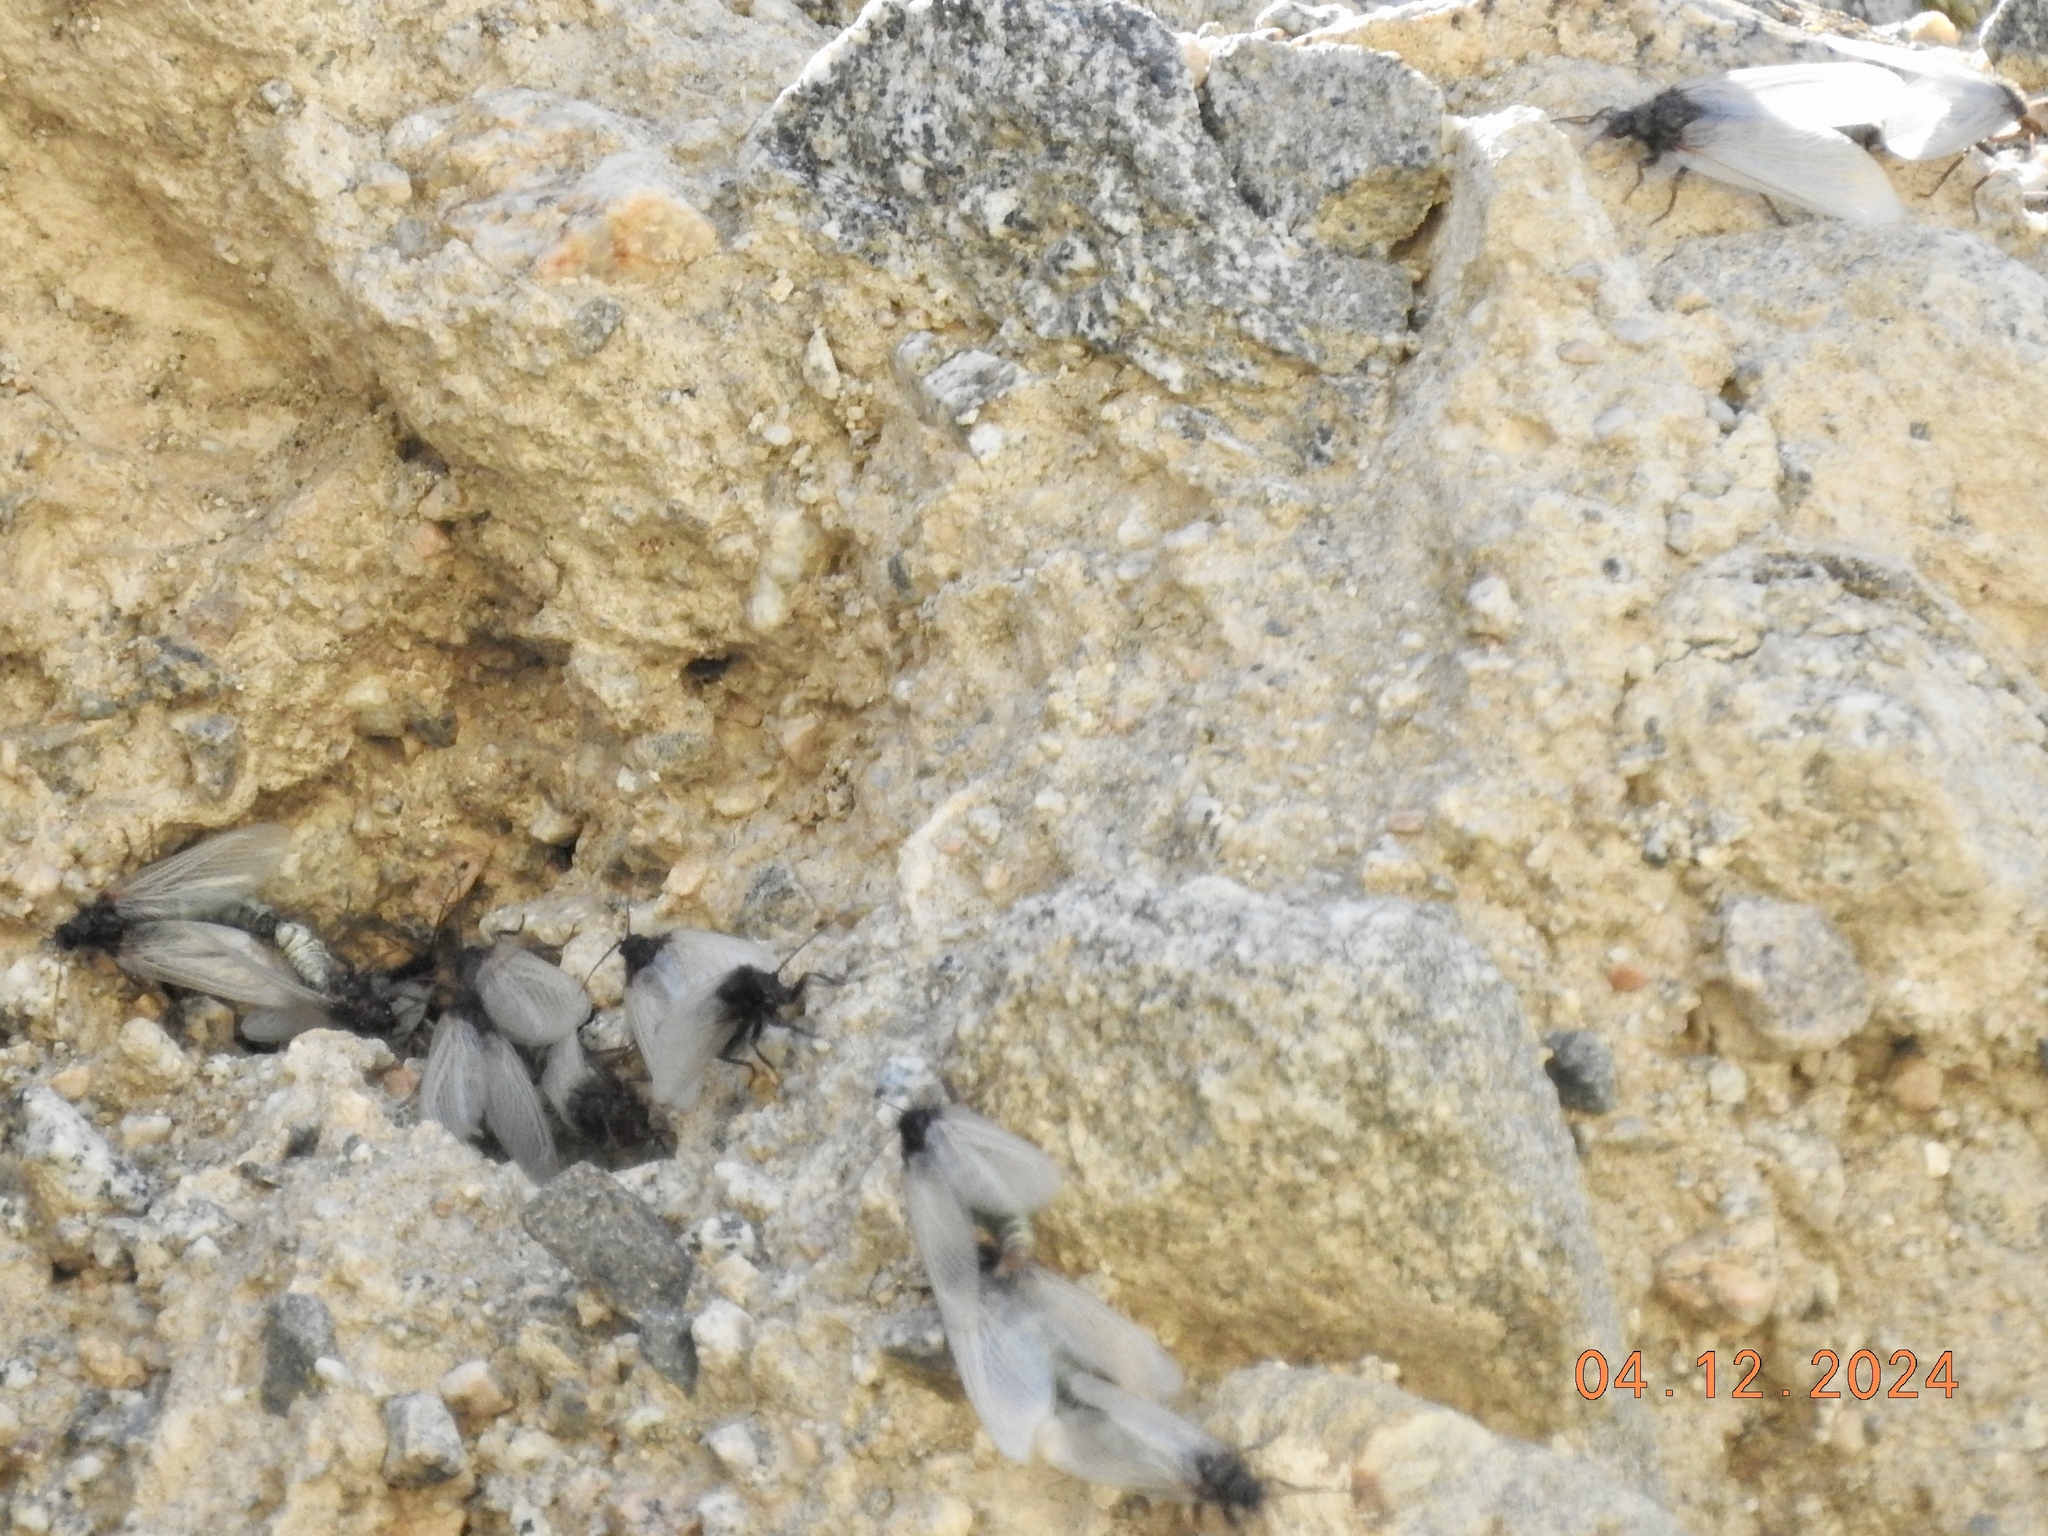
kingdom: Animalia
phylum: Arthropoda
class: Insecta
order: Neuroptera
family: Ithonidae
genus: Oliarces
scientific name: Oliarces clara
